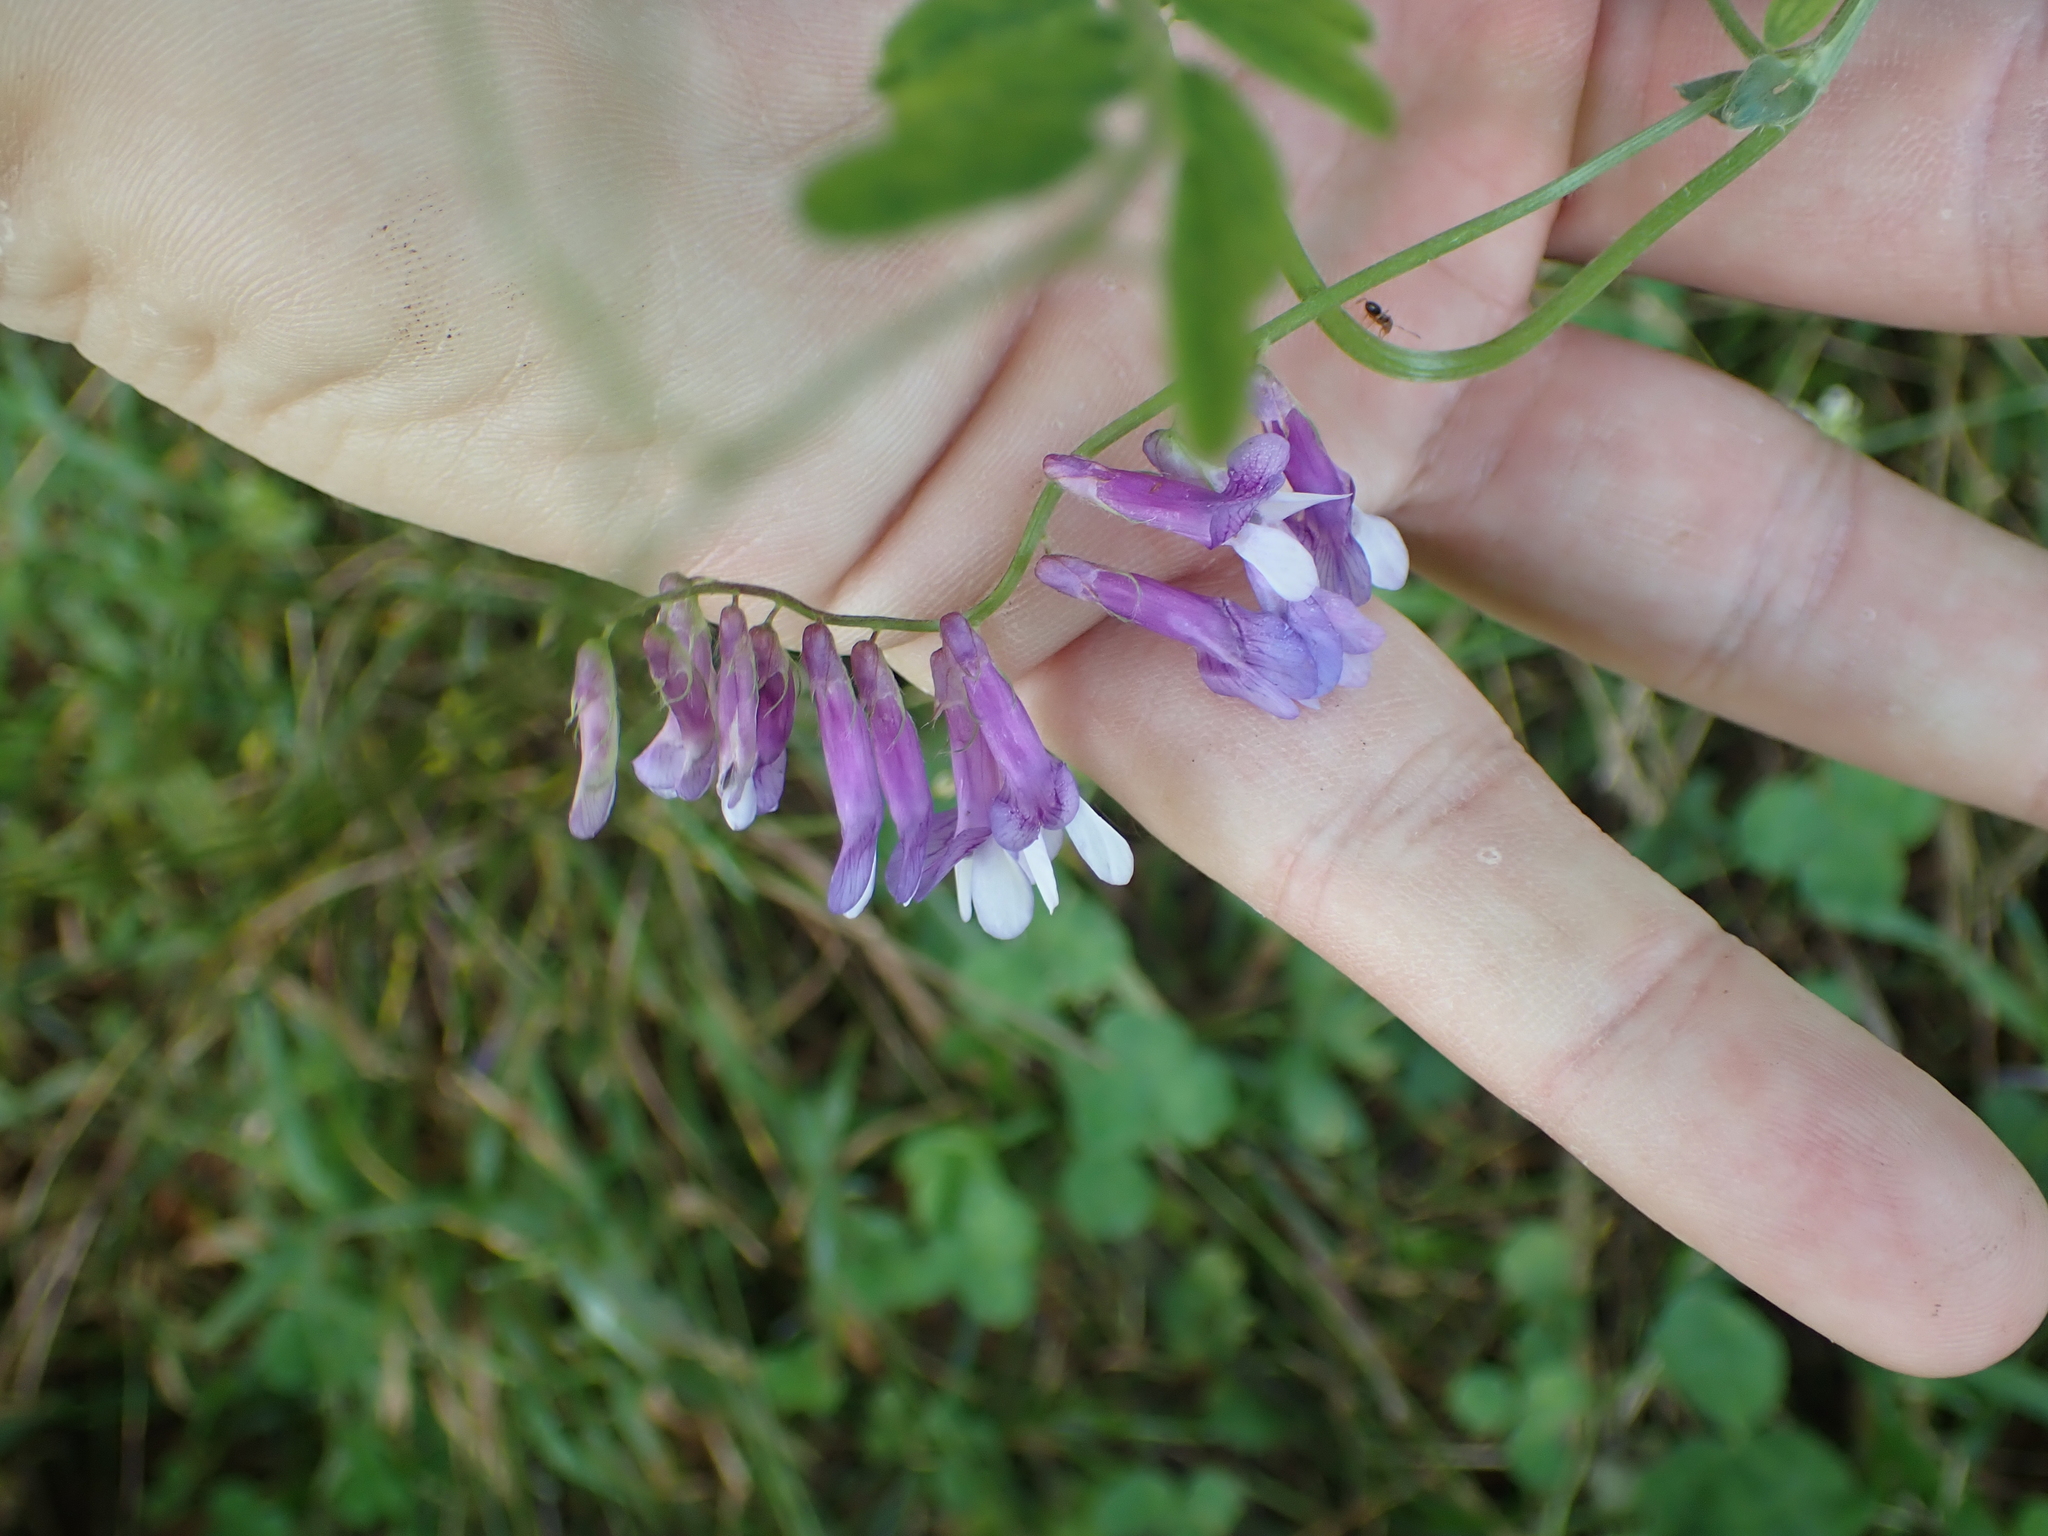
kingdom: Plantae
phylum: Tracheophyta
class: Magnoliopsida
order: Fabales
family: Fabaceae
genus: Vicia
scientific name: Vicia villosa
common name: Fodder vetch
